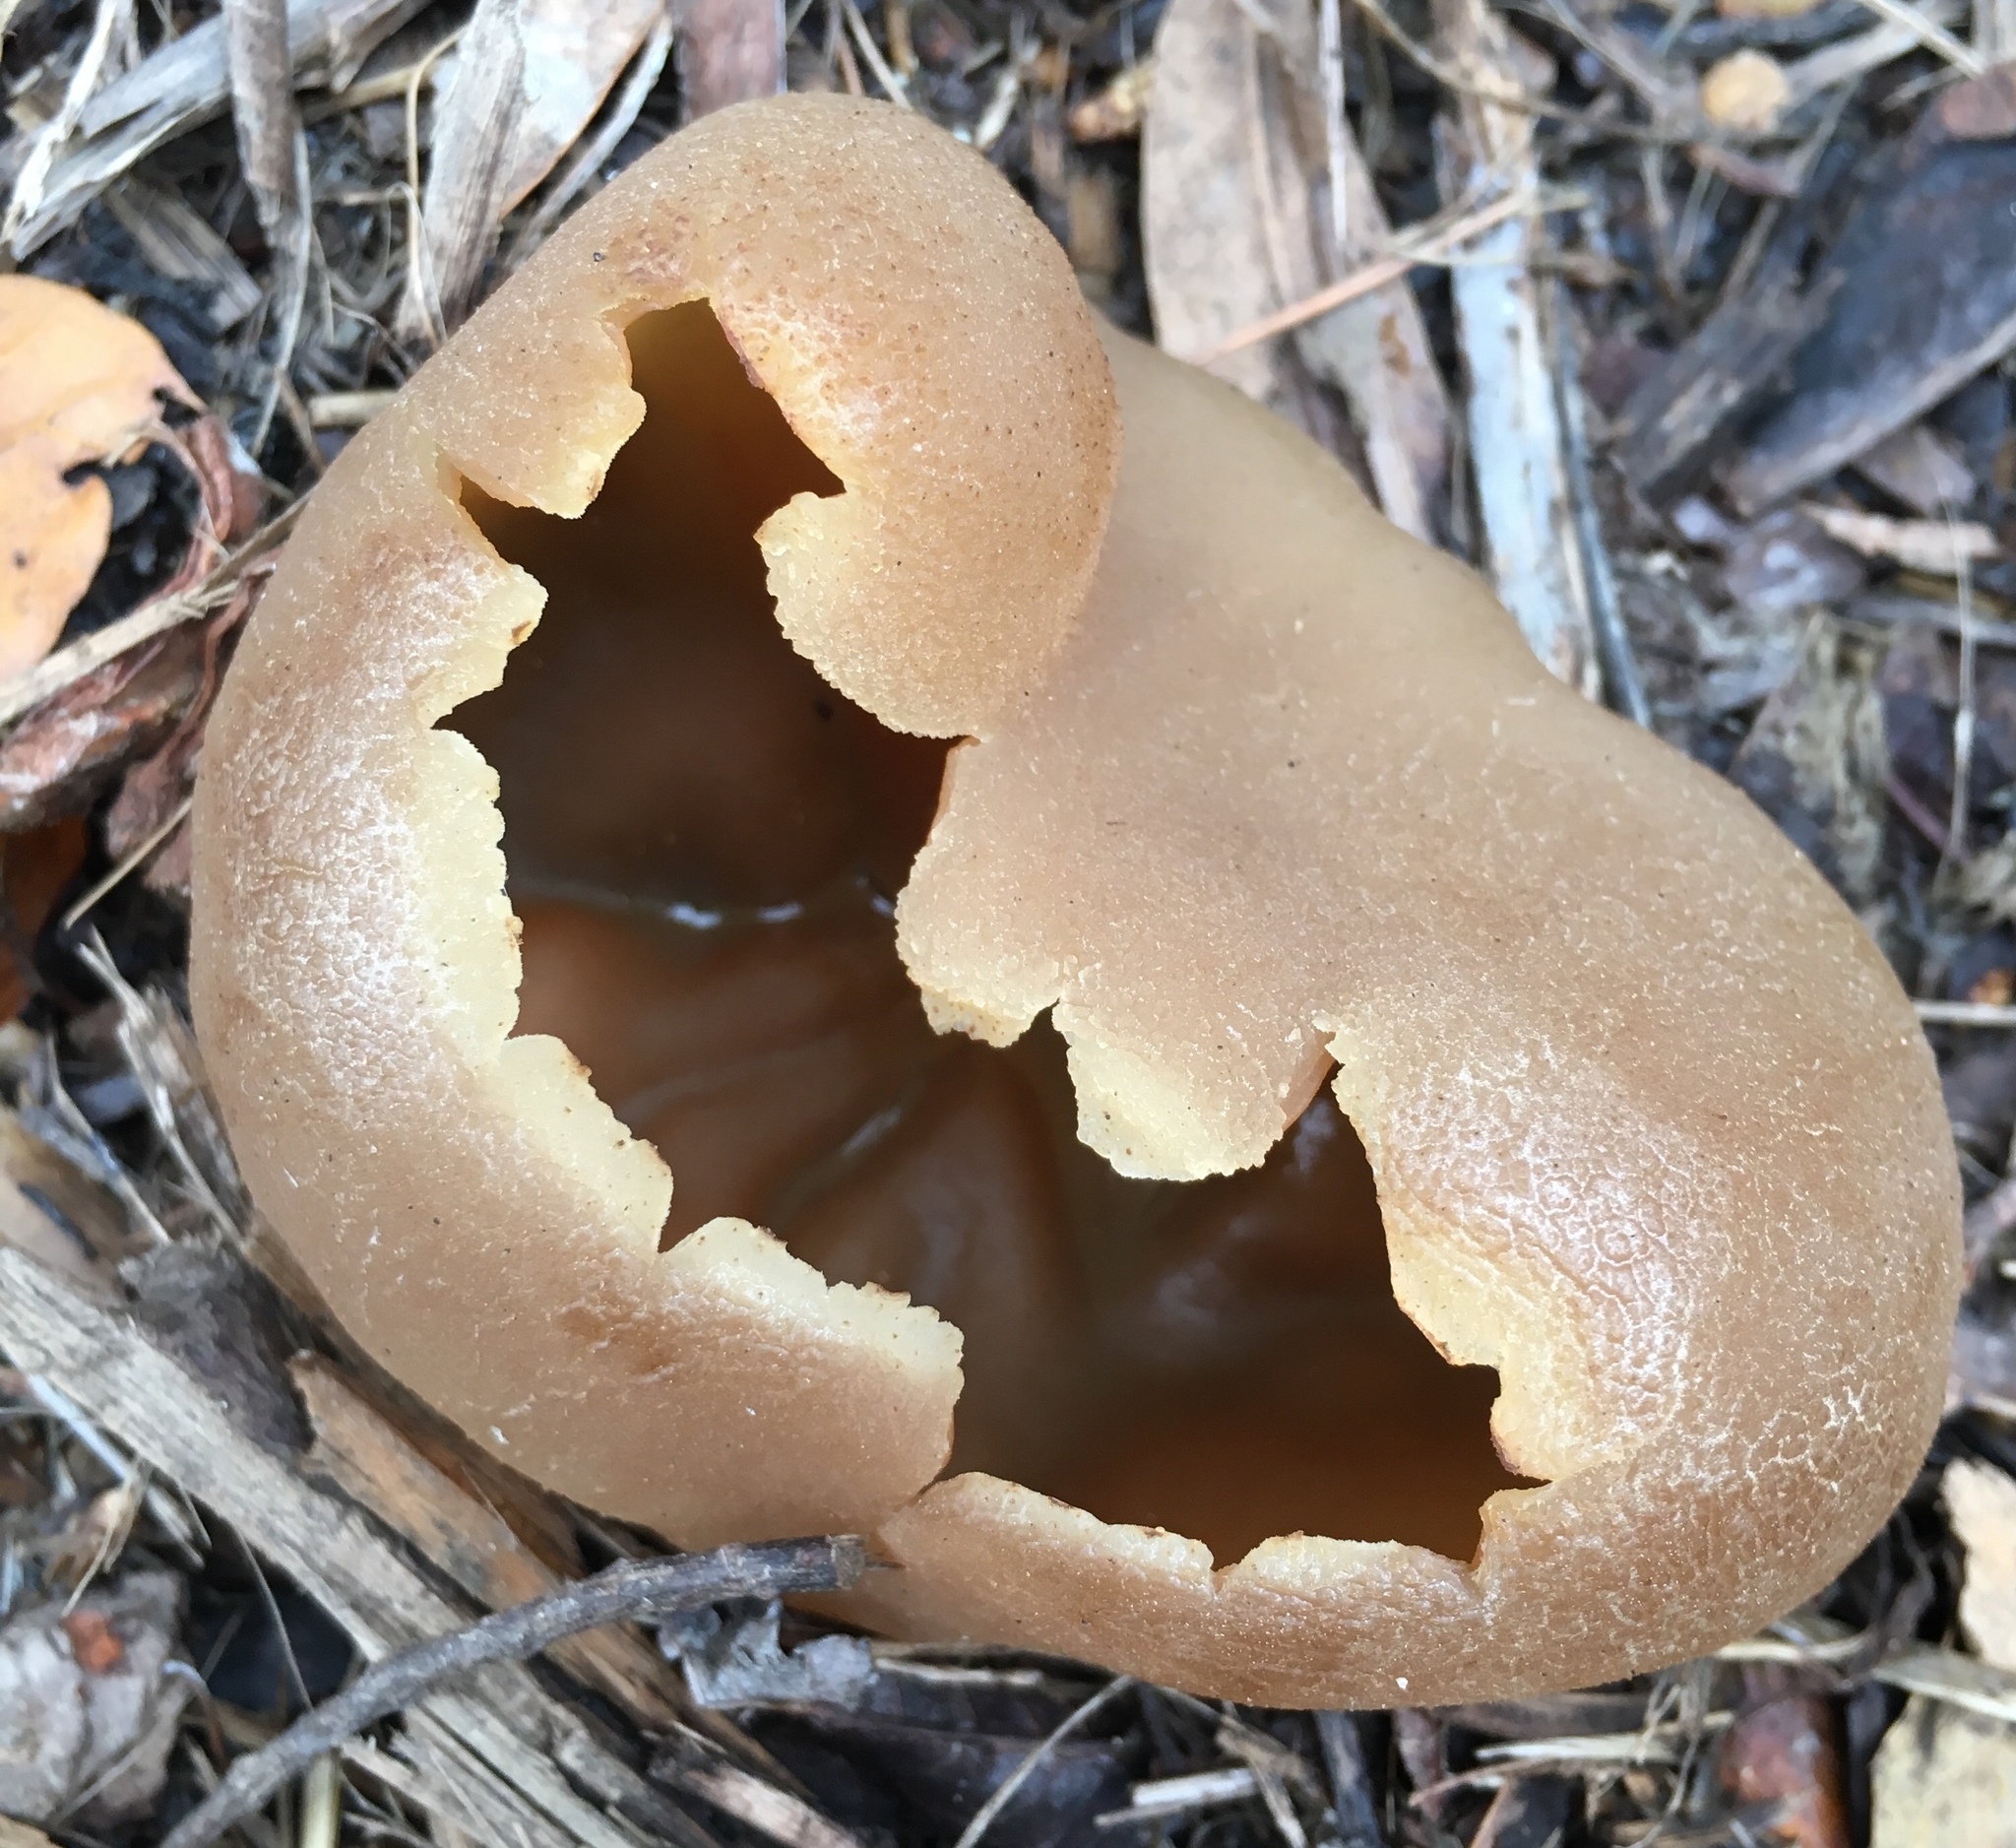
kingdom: Fungi
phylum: Ascomycota
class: Pezizomycetes
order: Pezizales
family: Pezizaceae
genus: Peziza
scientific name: Peziza varia
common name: Layered cup
